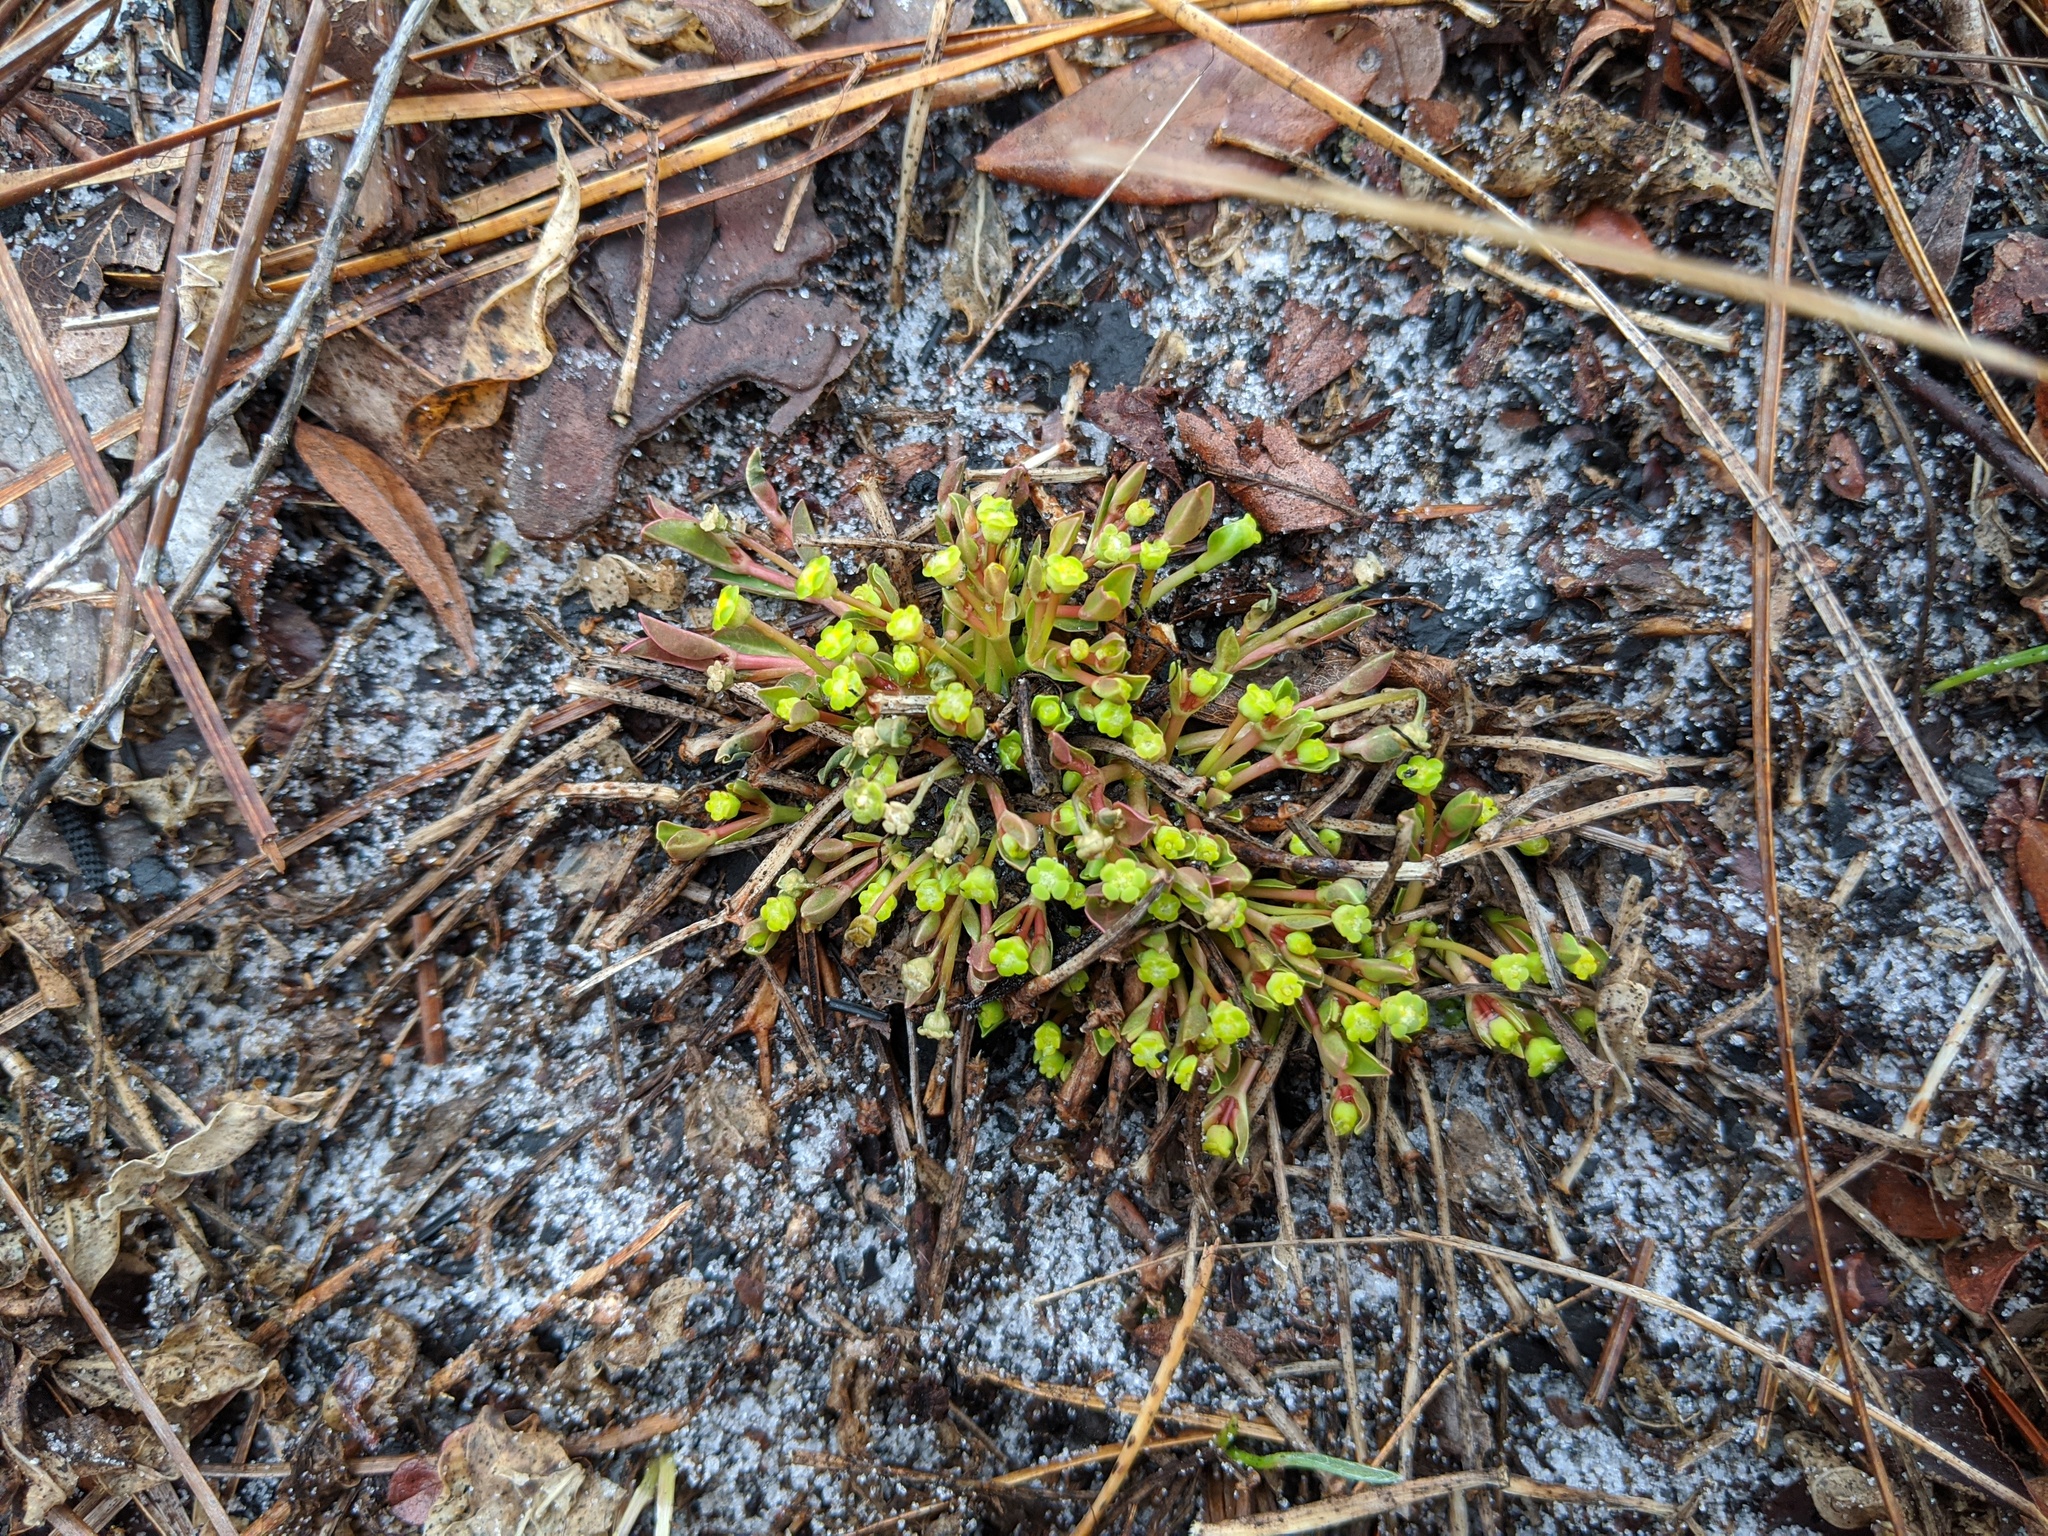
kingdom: Plantae
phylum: Tracheophyta
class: Magnoliopsida
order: Malpighiales
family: Euphorbiaceae
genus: Euphorbia
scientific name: Euphorbia ipecacuanhae
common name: Carolina ipecac
